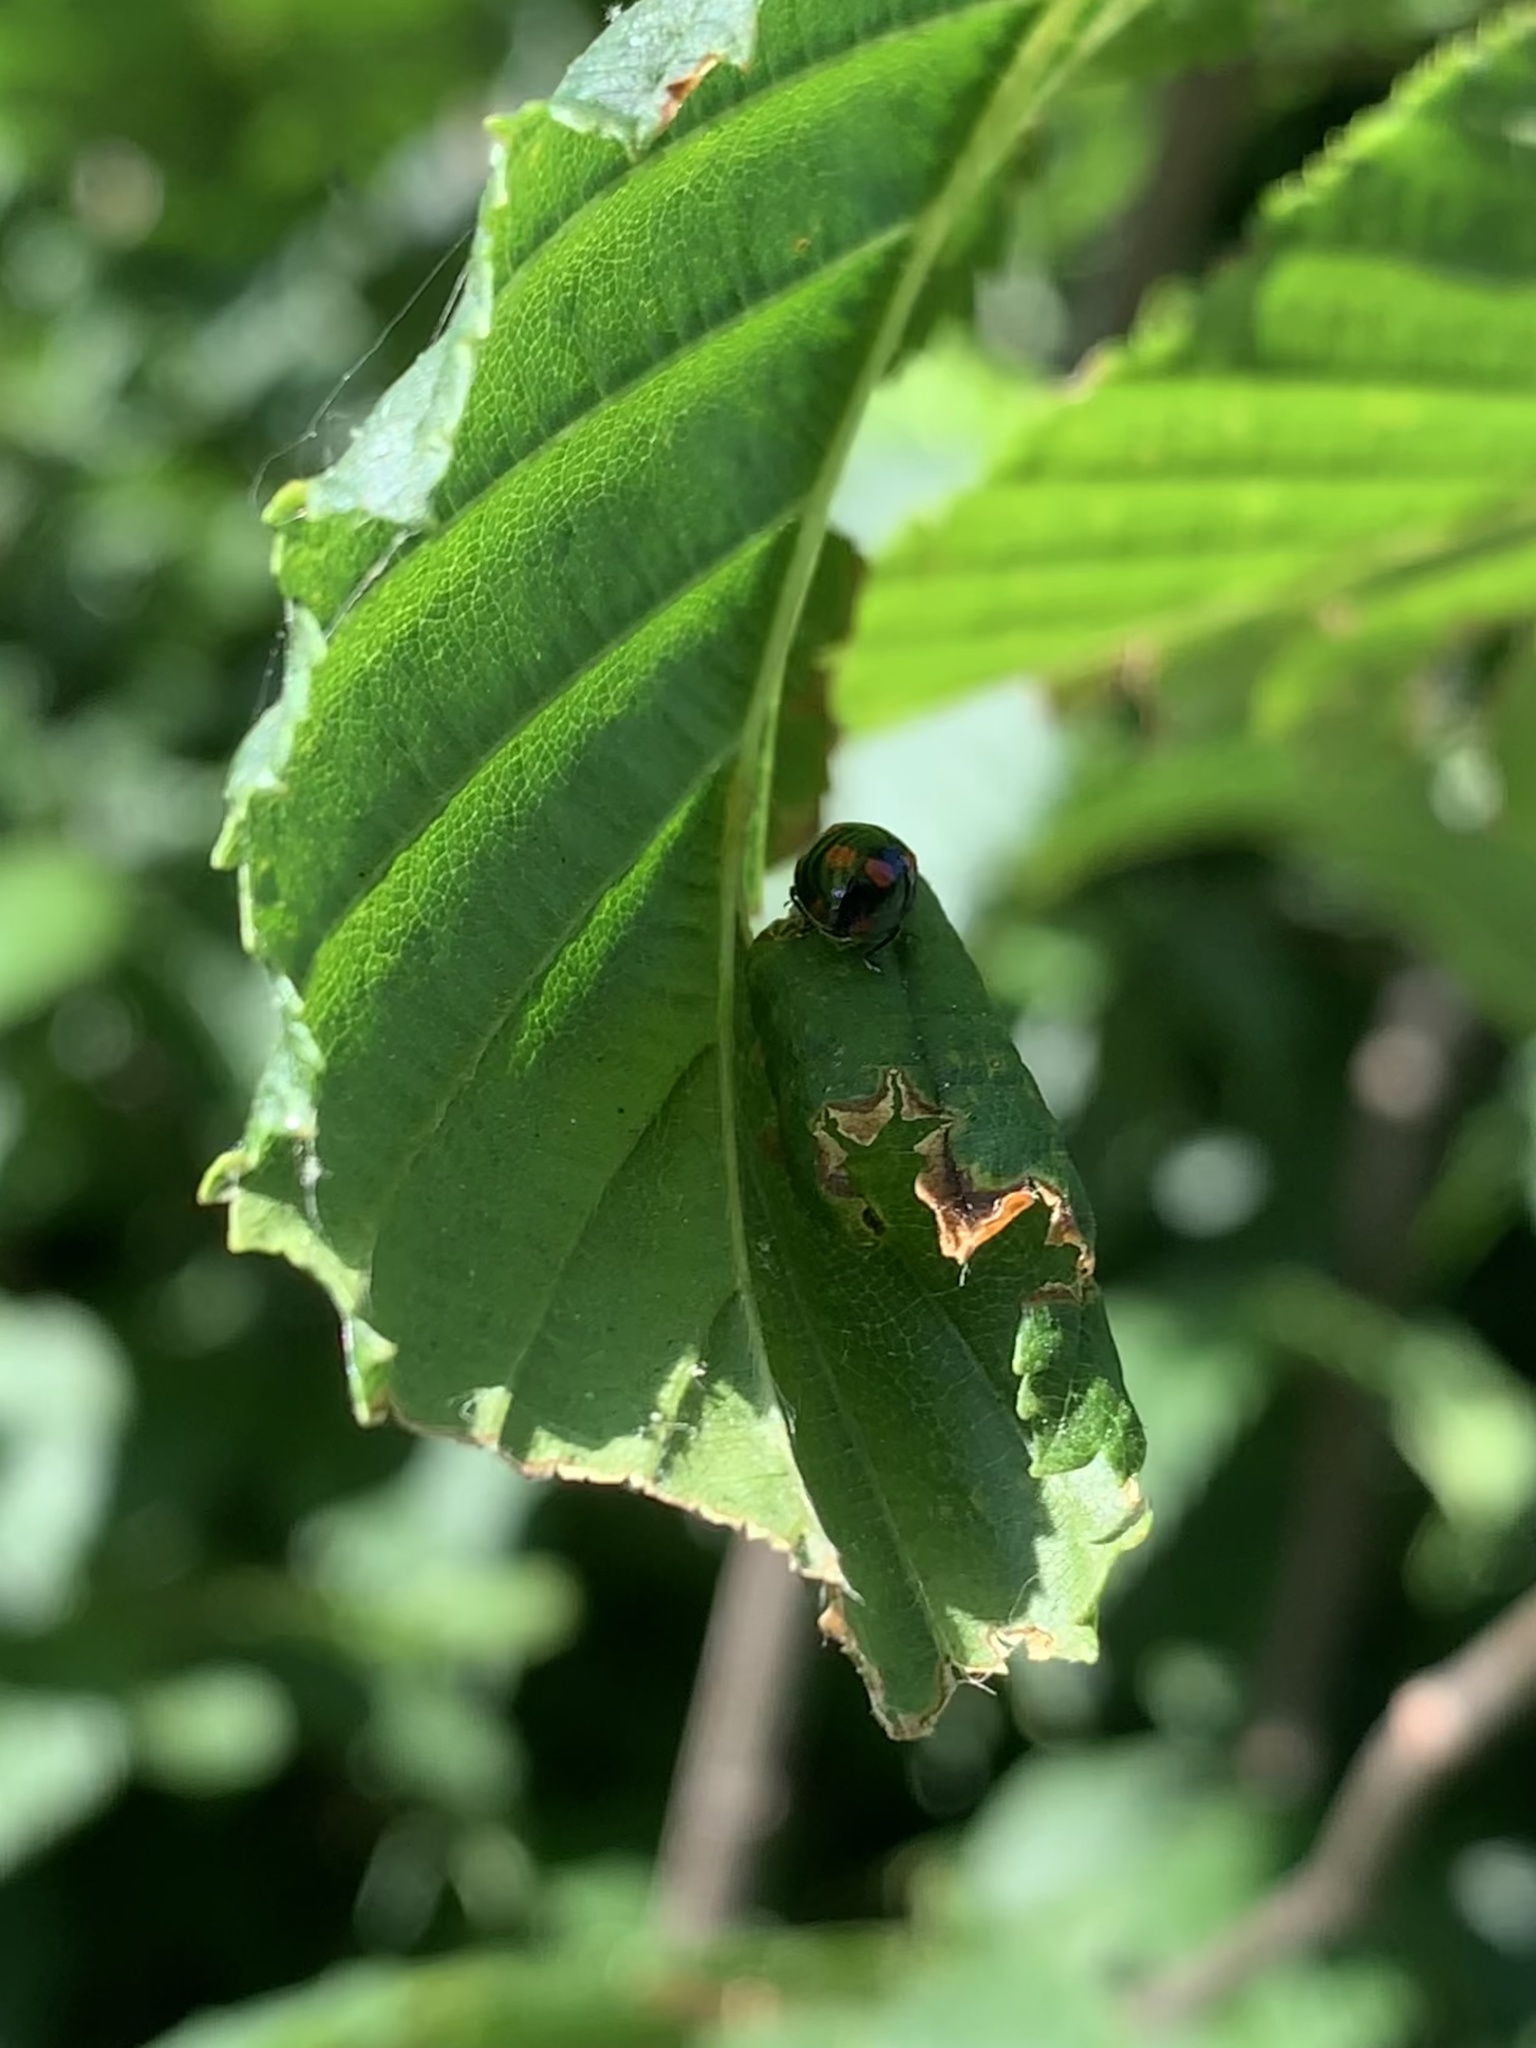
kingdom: Animalia
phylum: Arthropoda
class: Insecta
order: Coleoptera
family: Coccinellidae
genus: Adalia
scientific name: Adalia bipunctata
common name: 2-spot ladybird
